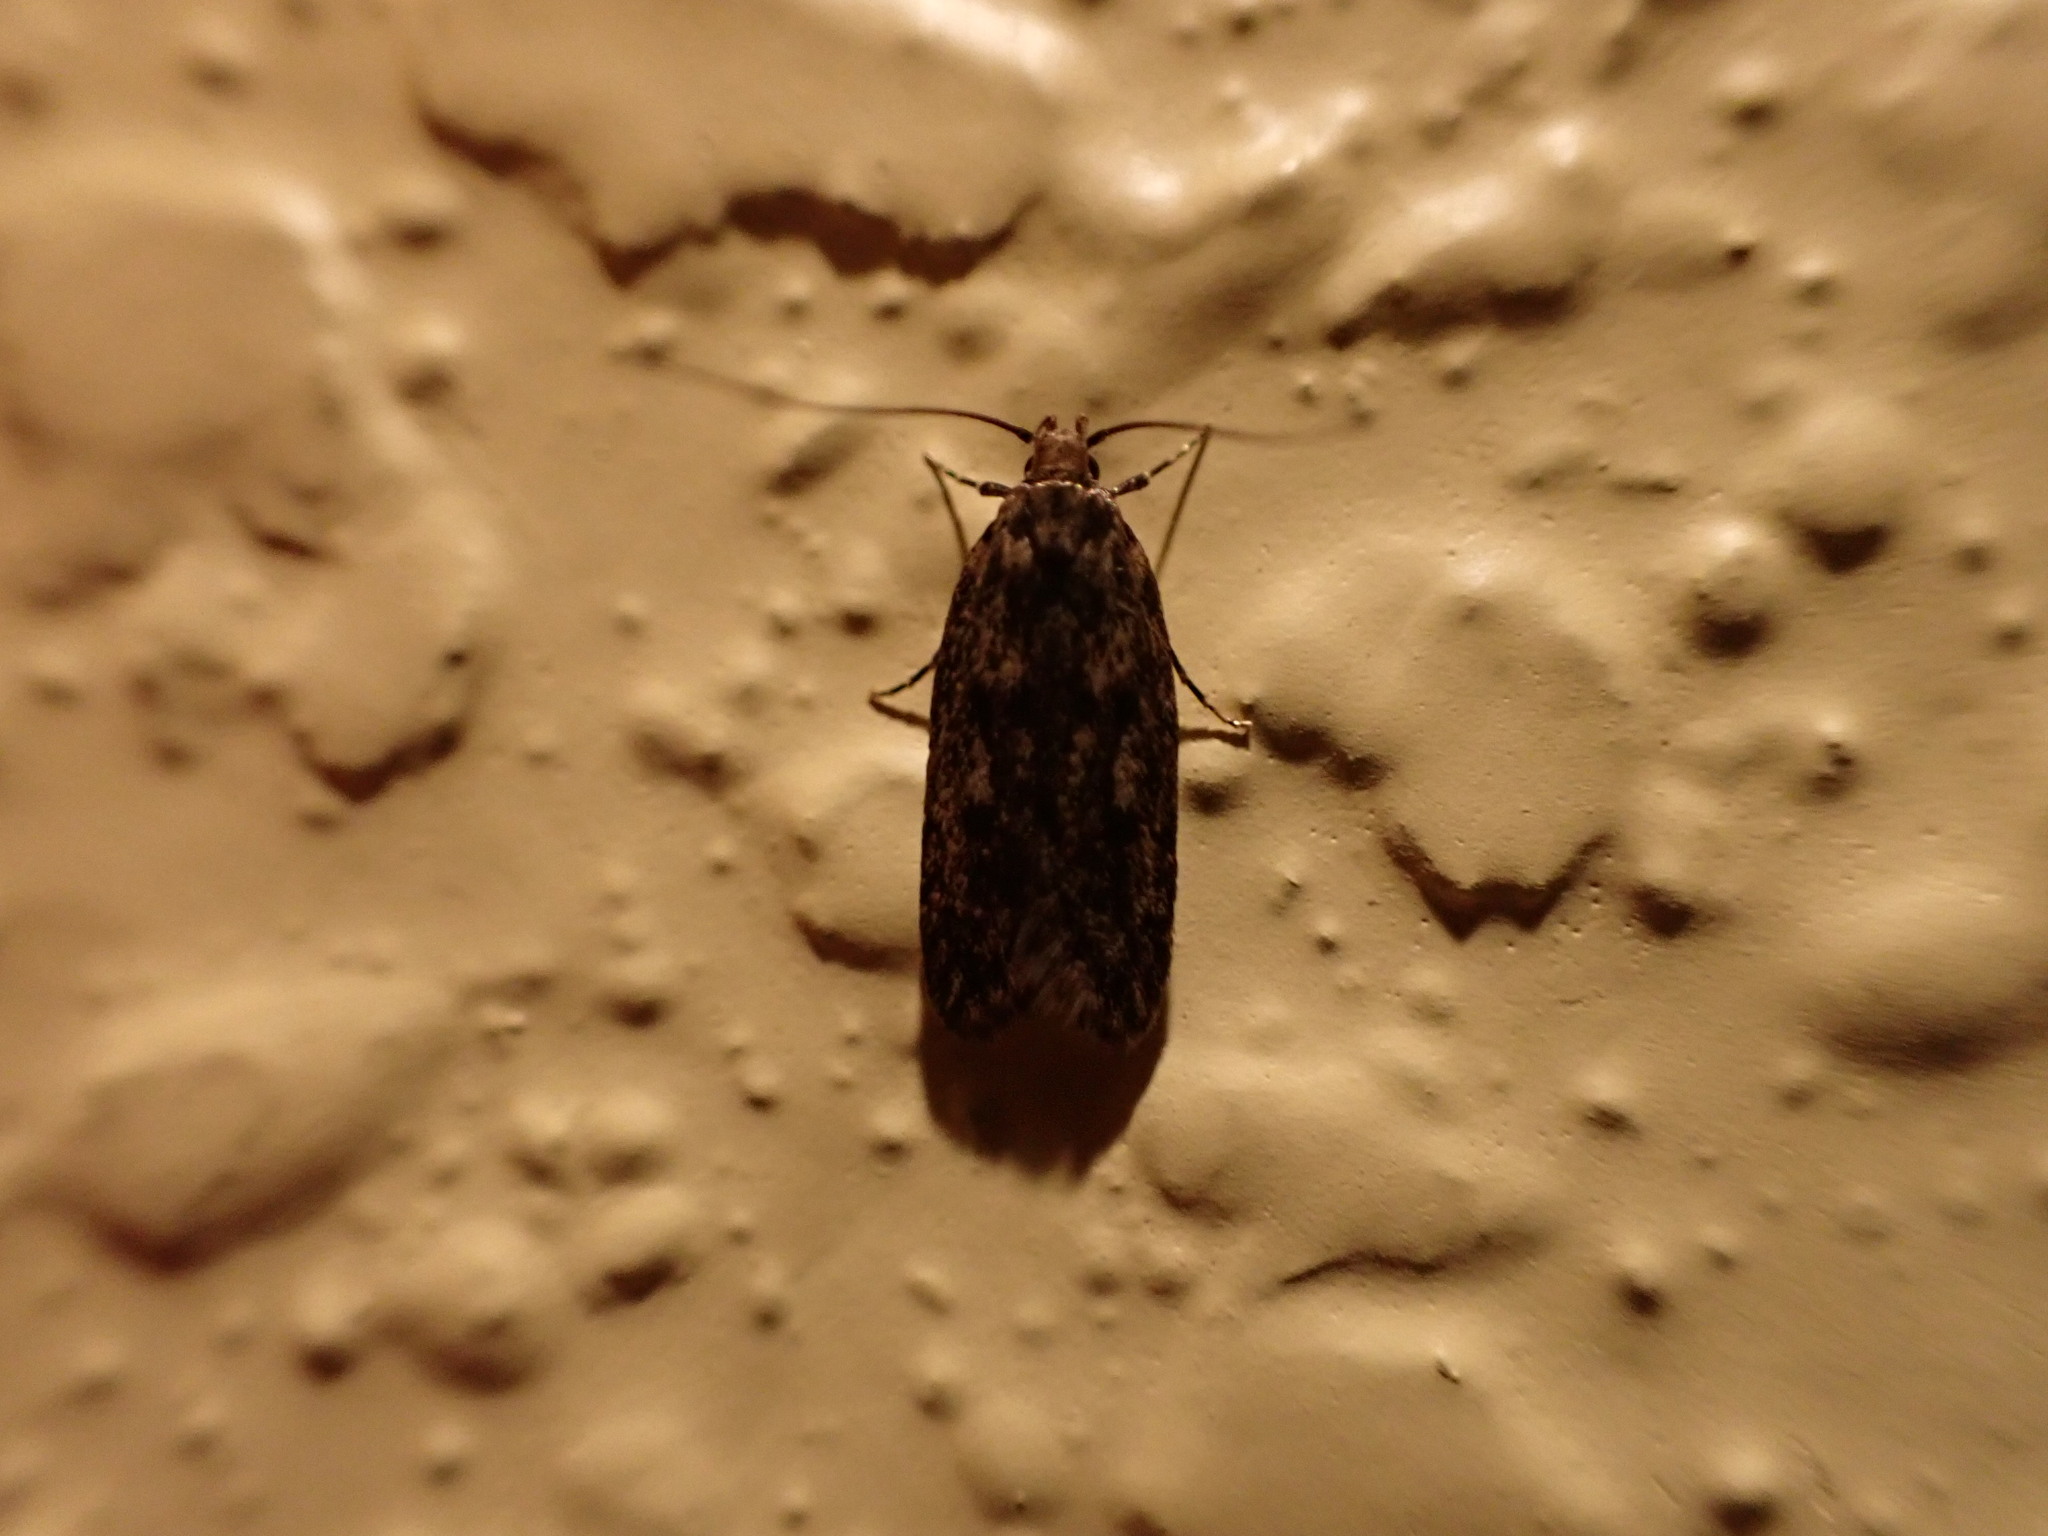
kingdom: Animalia
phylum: Arthropoda
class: Insecta
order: Lepidoptera
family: Oecophoridae
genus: Hofmannophila
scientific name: Hofmannophila pseudospretella
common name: Brown house moth
